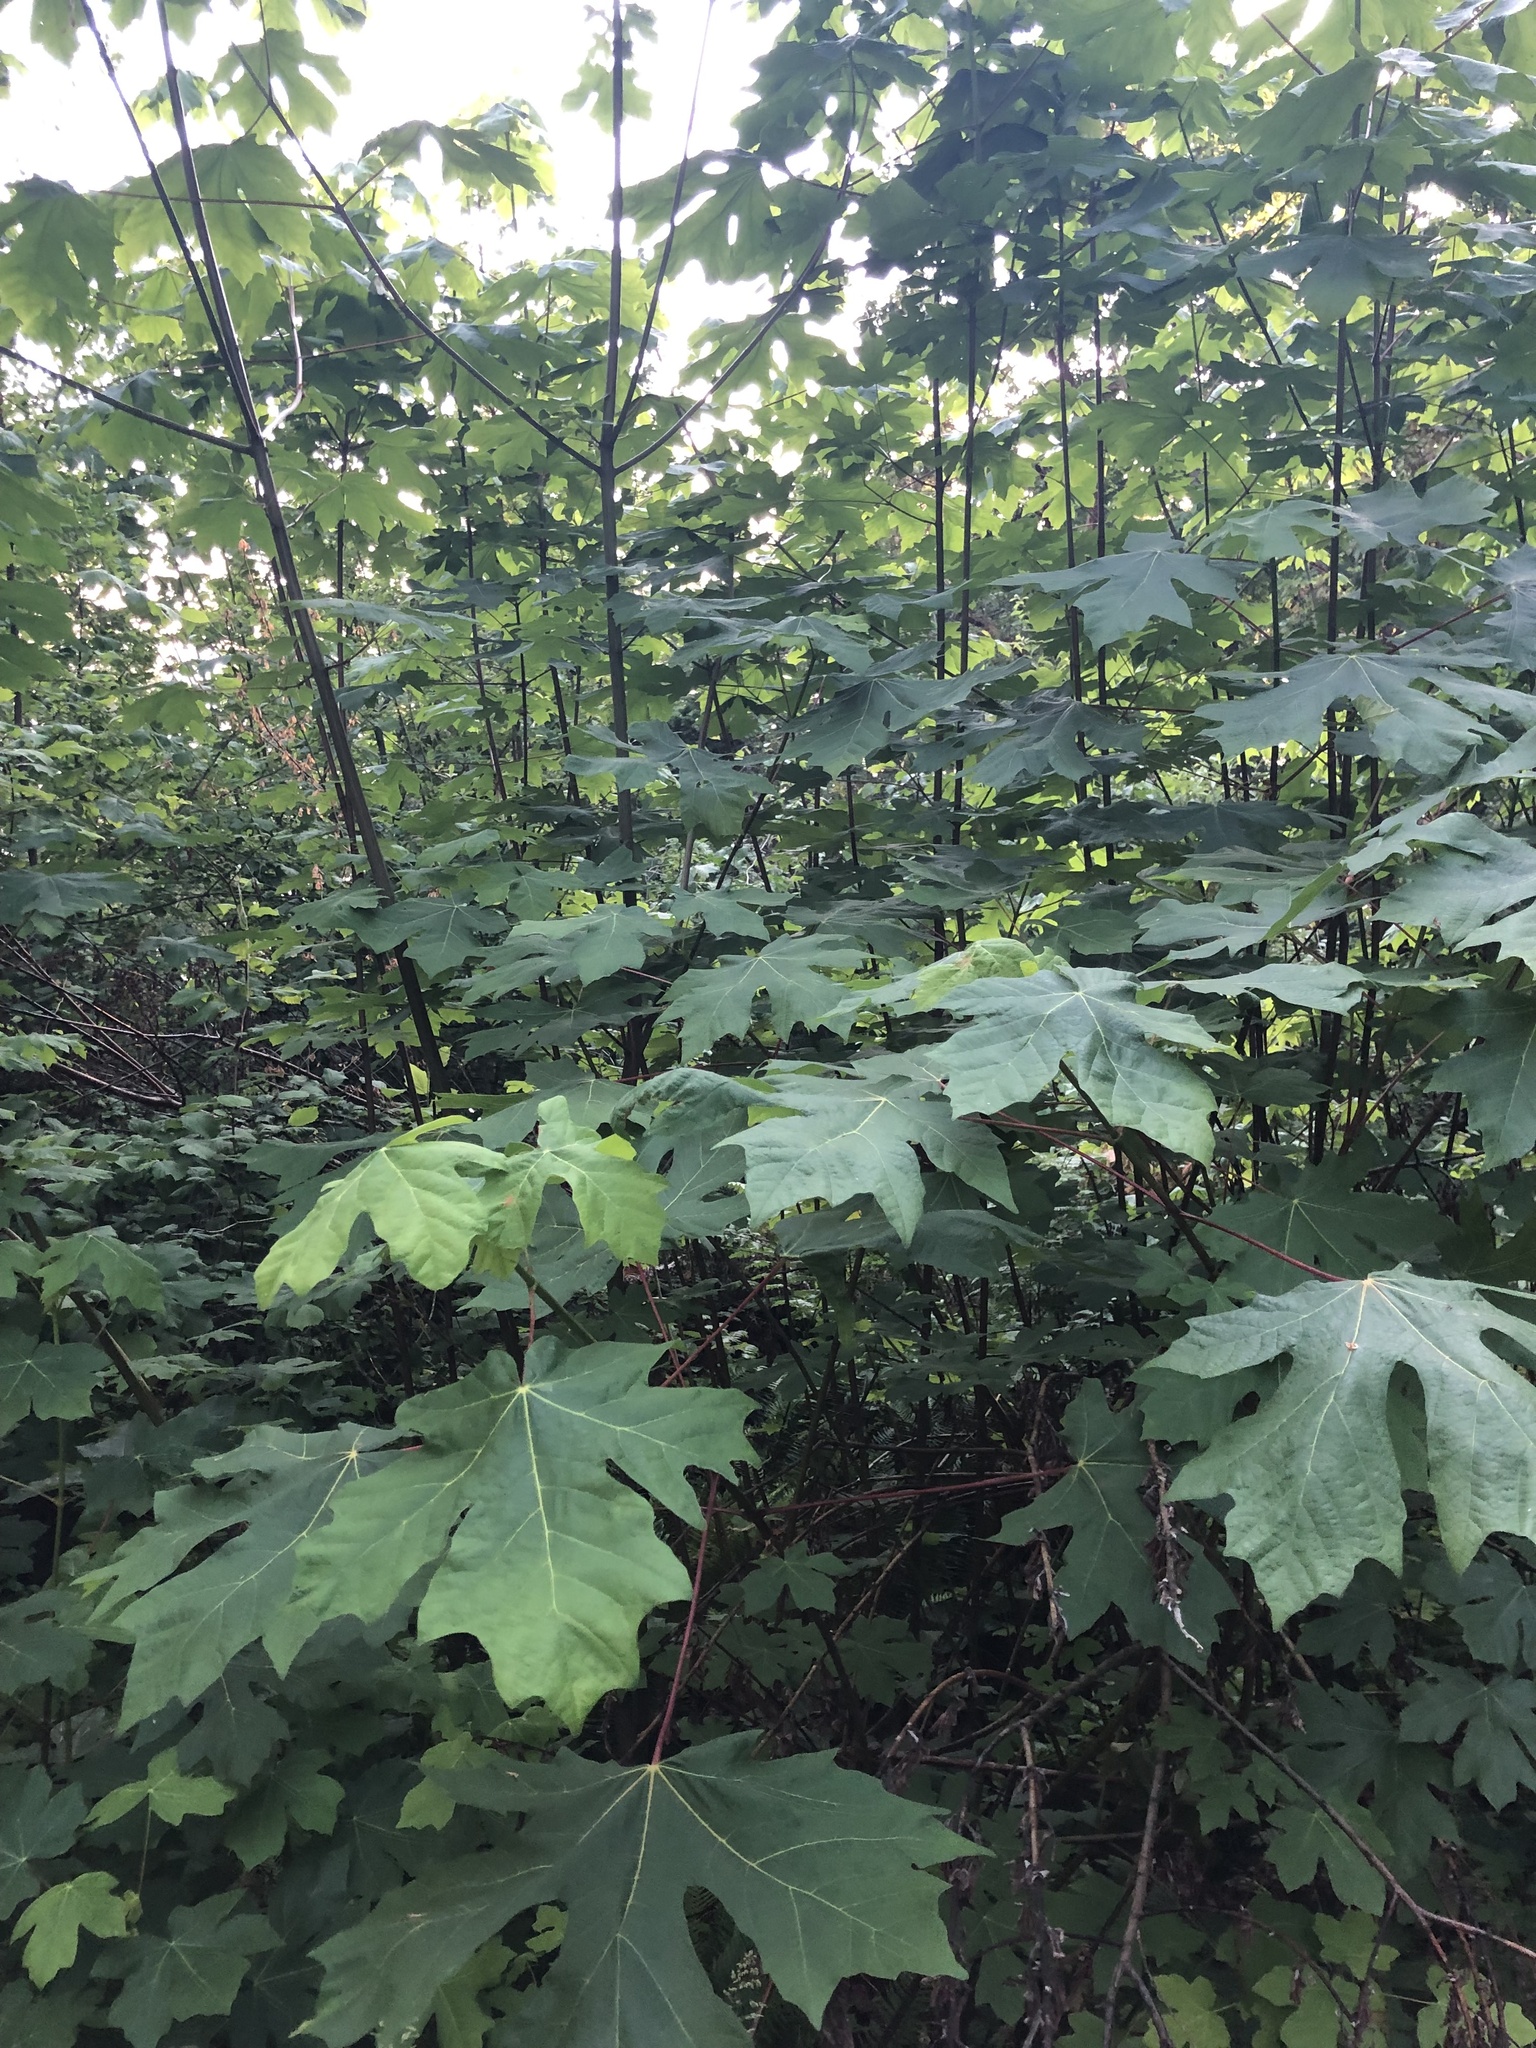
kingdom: Plantae
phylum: Tracheophyta
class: Magnoliopsida
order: Sapindales
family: Sapindaceae
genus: Acer
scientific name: Acer macrophyllum
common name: Oregon maple
